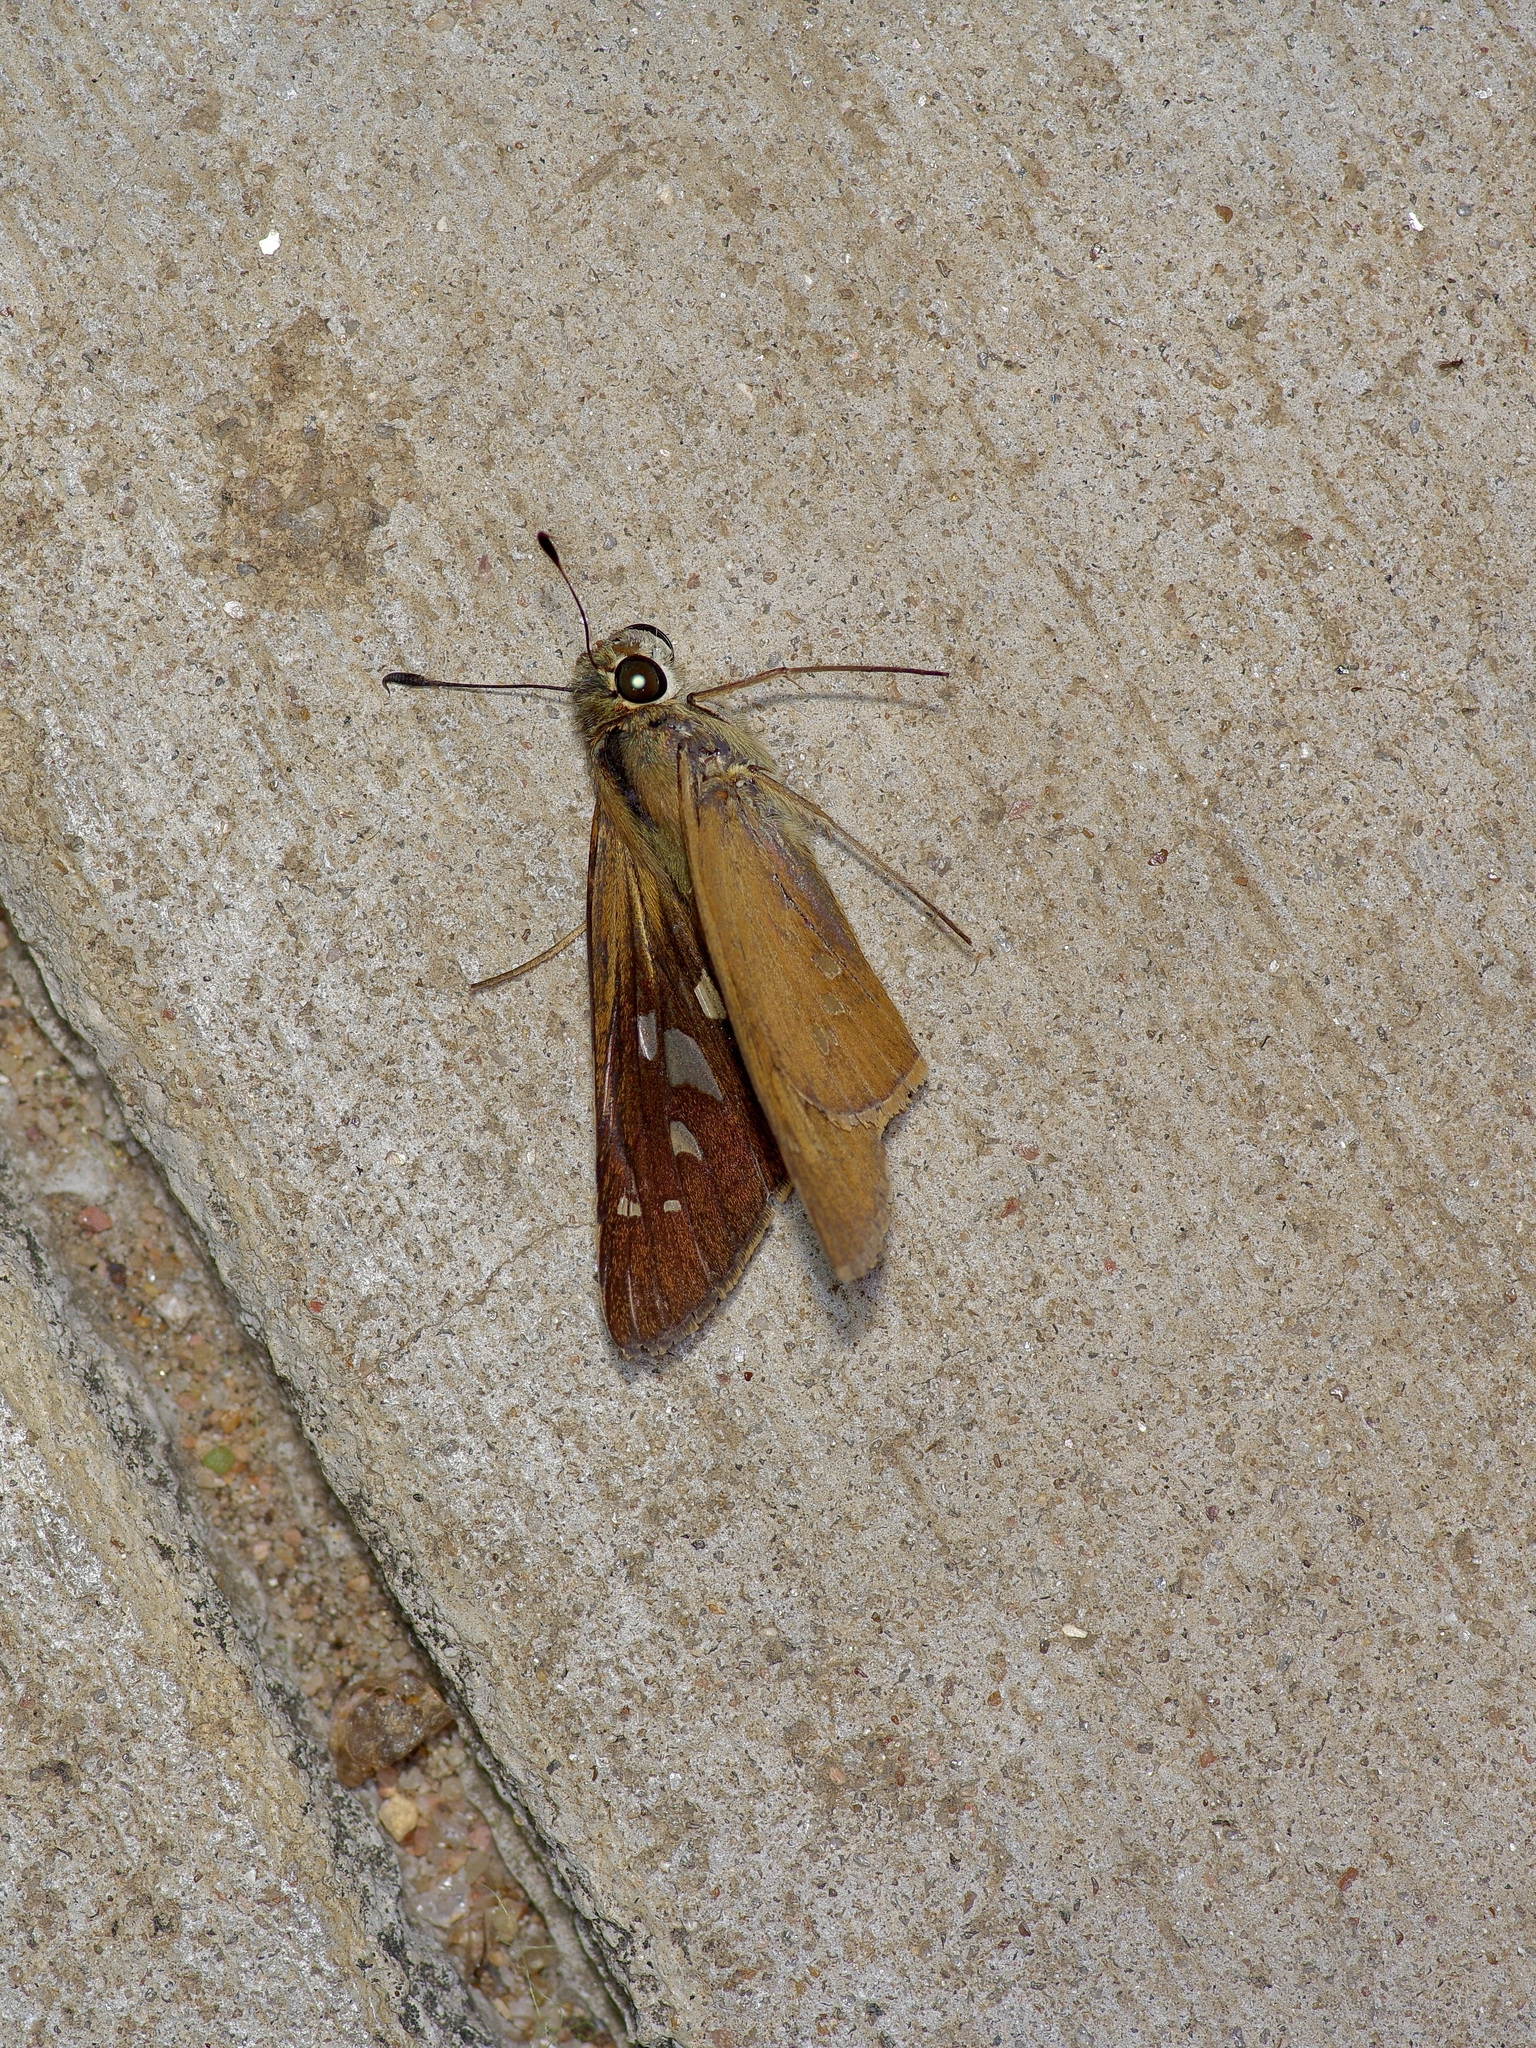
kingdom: Animalia
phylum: Arthropoda
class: Insecta
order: Lepidoptera
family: Hesperiidae
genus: Calpodes
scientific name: Calpodes ethlius
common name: Brazilian skipper
